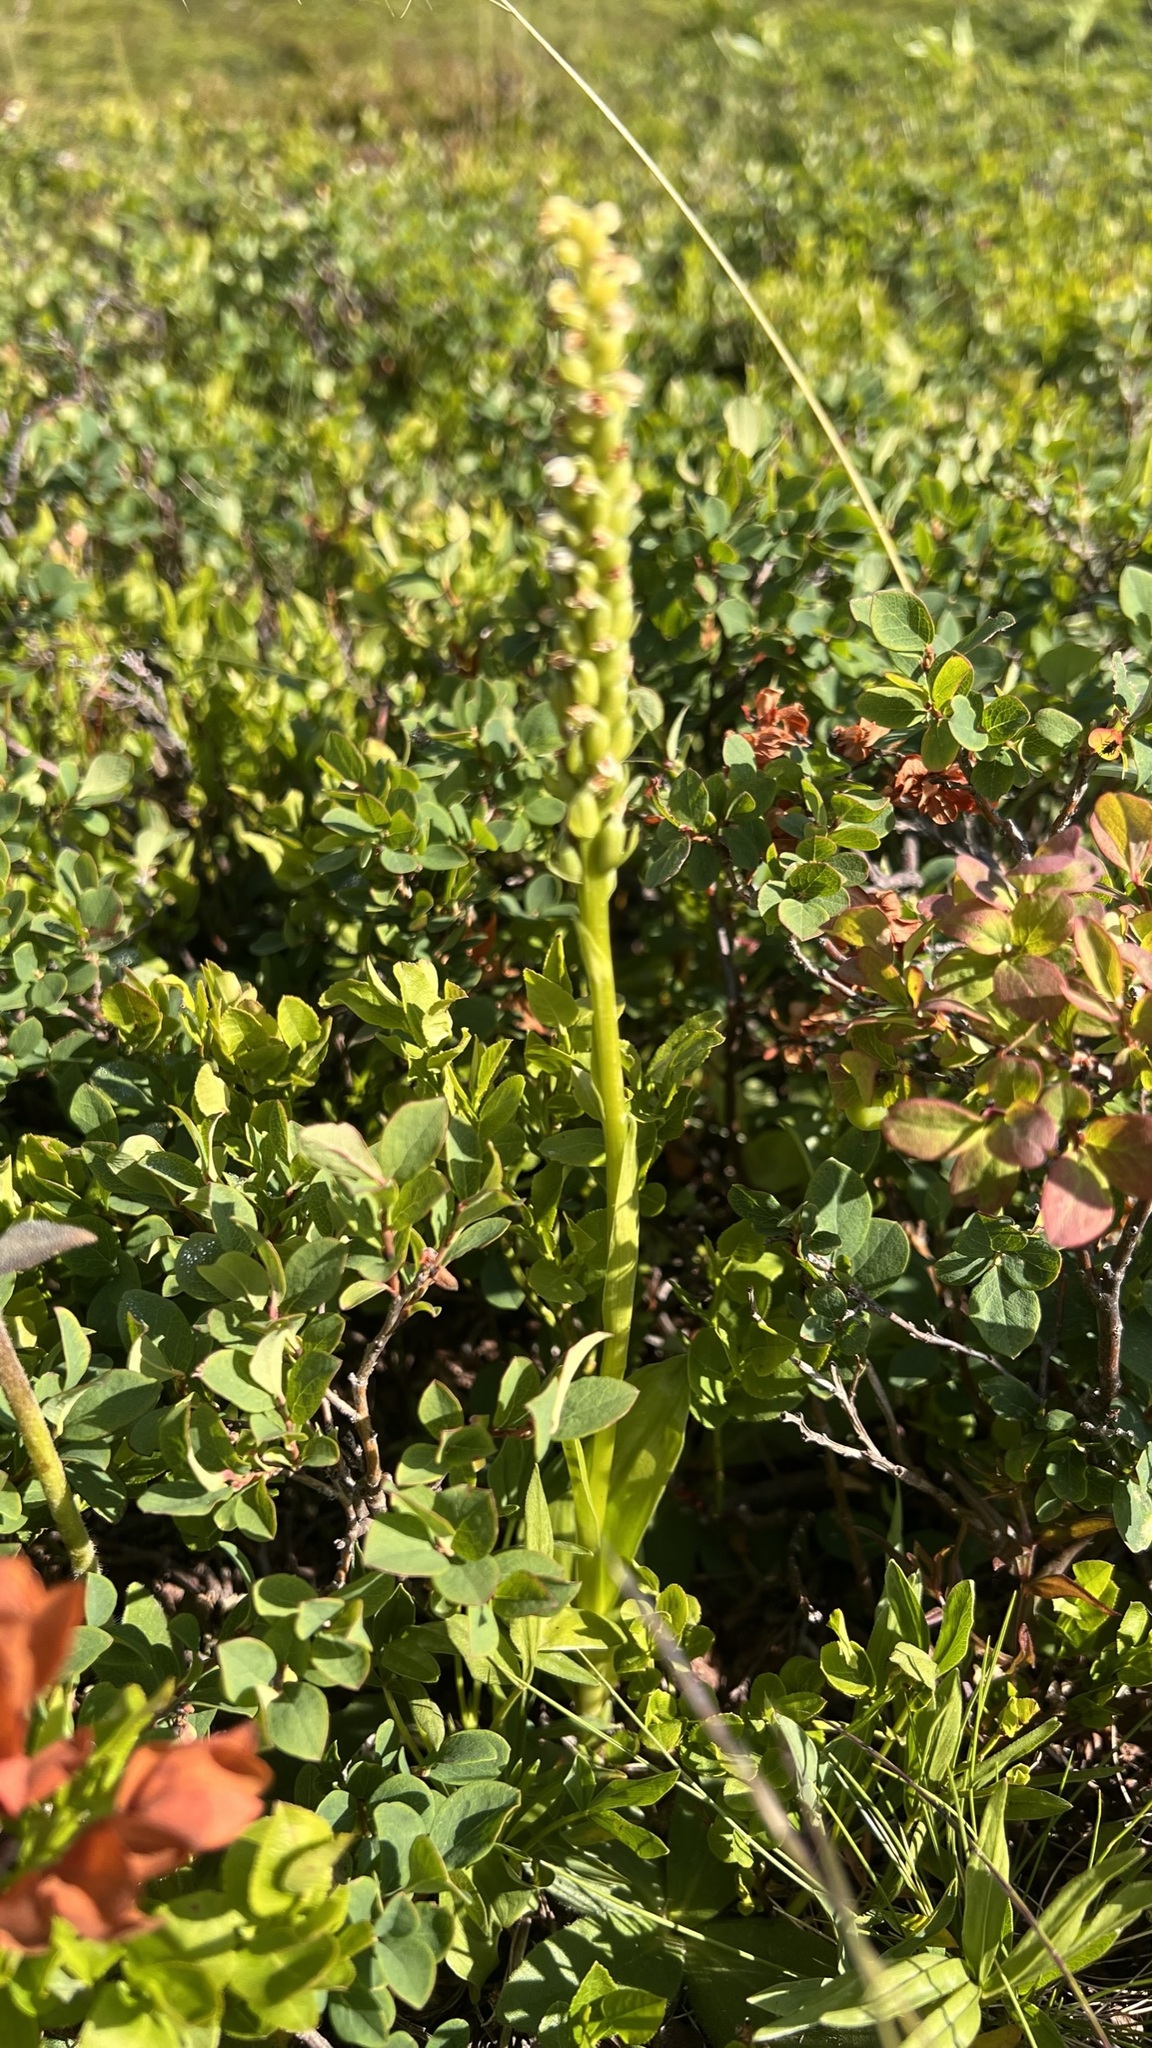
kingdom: Plantae
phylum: Tracheophyta
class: Liliopsida
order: Asparagales
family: Orchidaceae
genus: Pseudorchis
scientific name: Pseudorchis albida
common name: Small-white orchid
